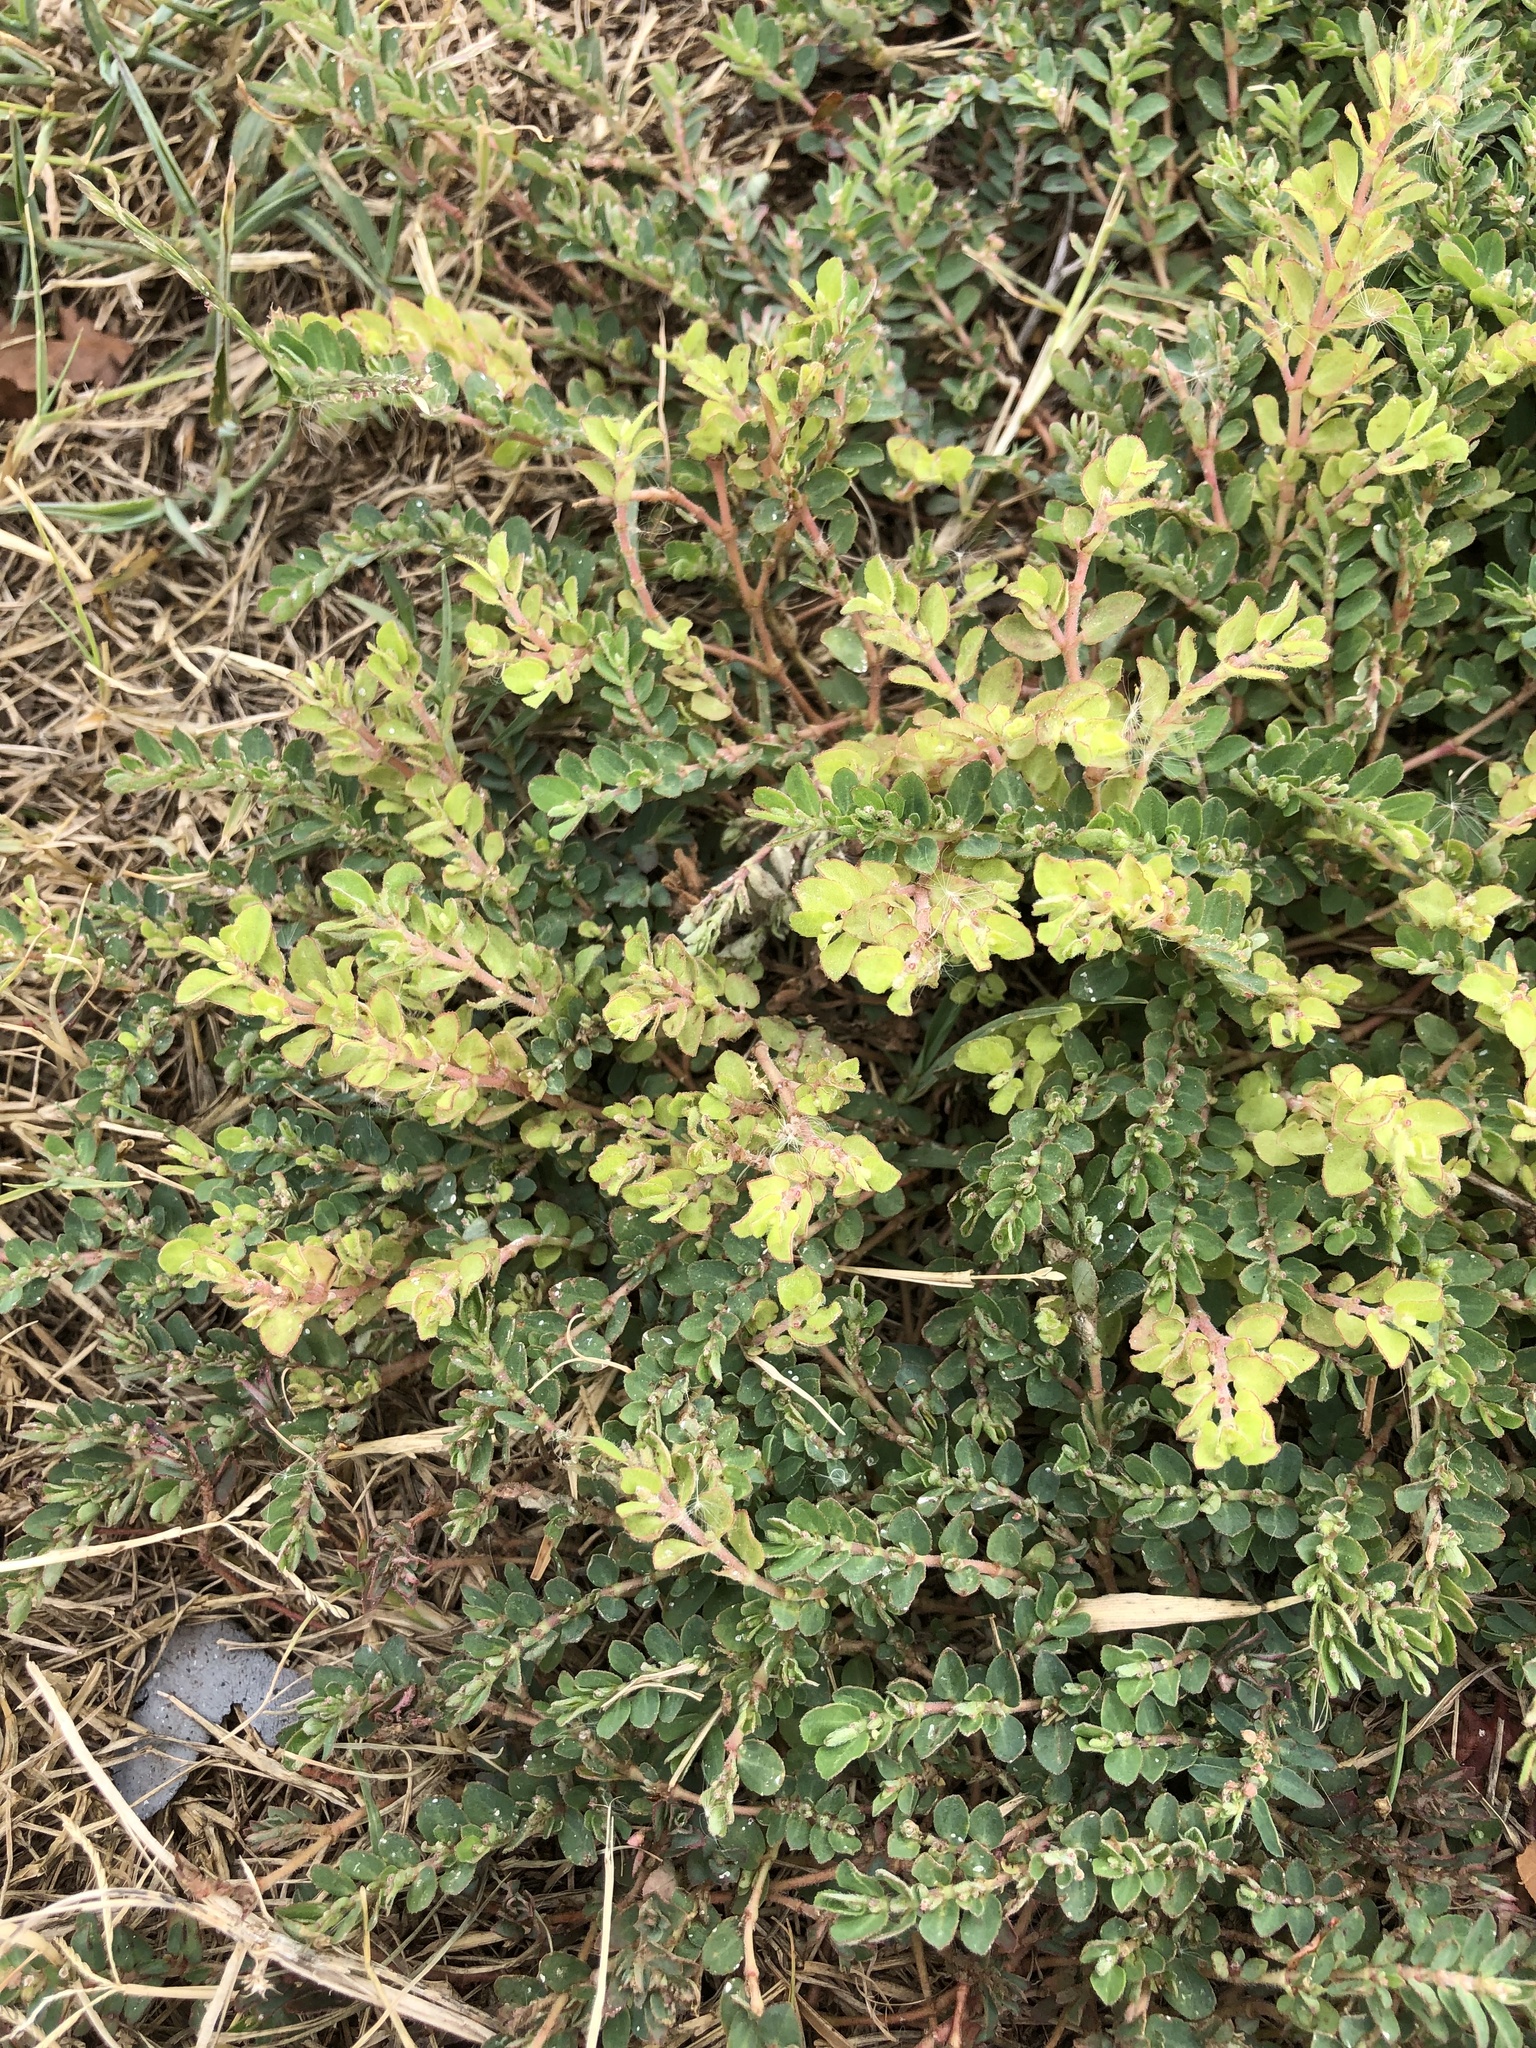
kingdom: Plantae
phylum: Tracheophyta
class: Magnoliopsida
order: Malpighiales
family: Euphorbiaceae
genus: Euphorbia
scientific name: Euphorbia prostrata
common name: Prostrate sandmat
